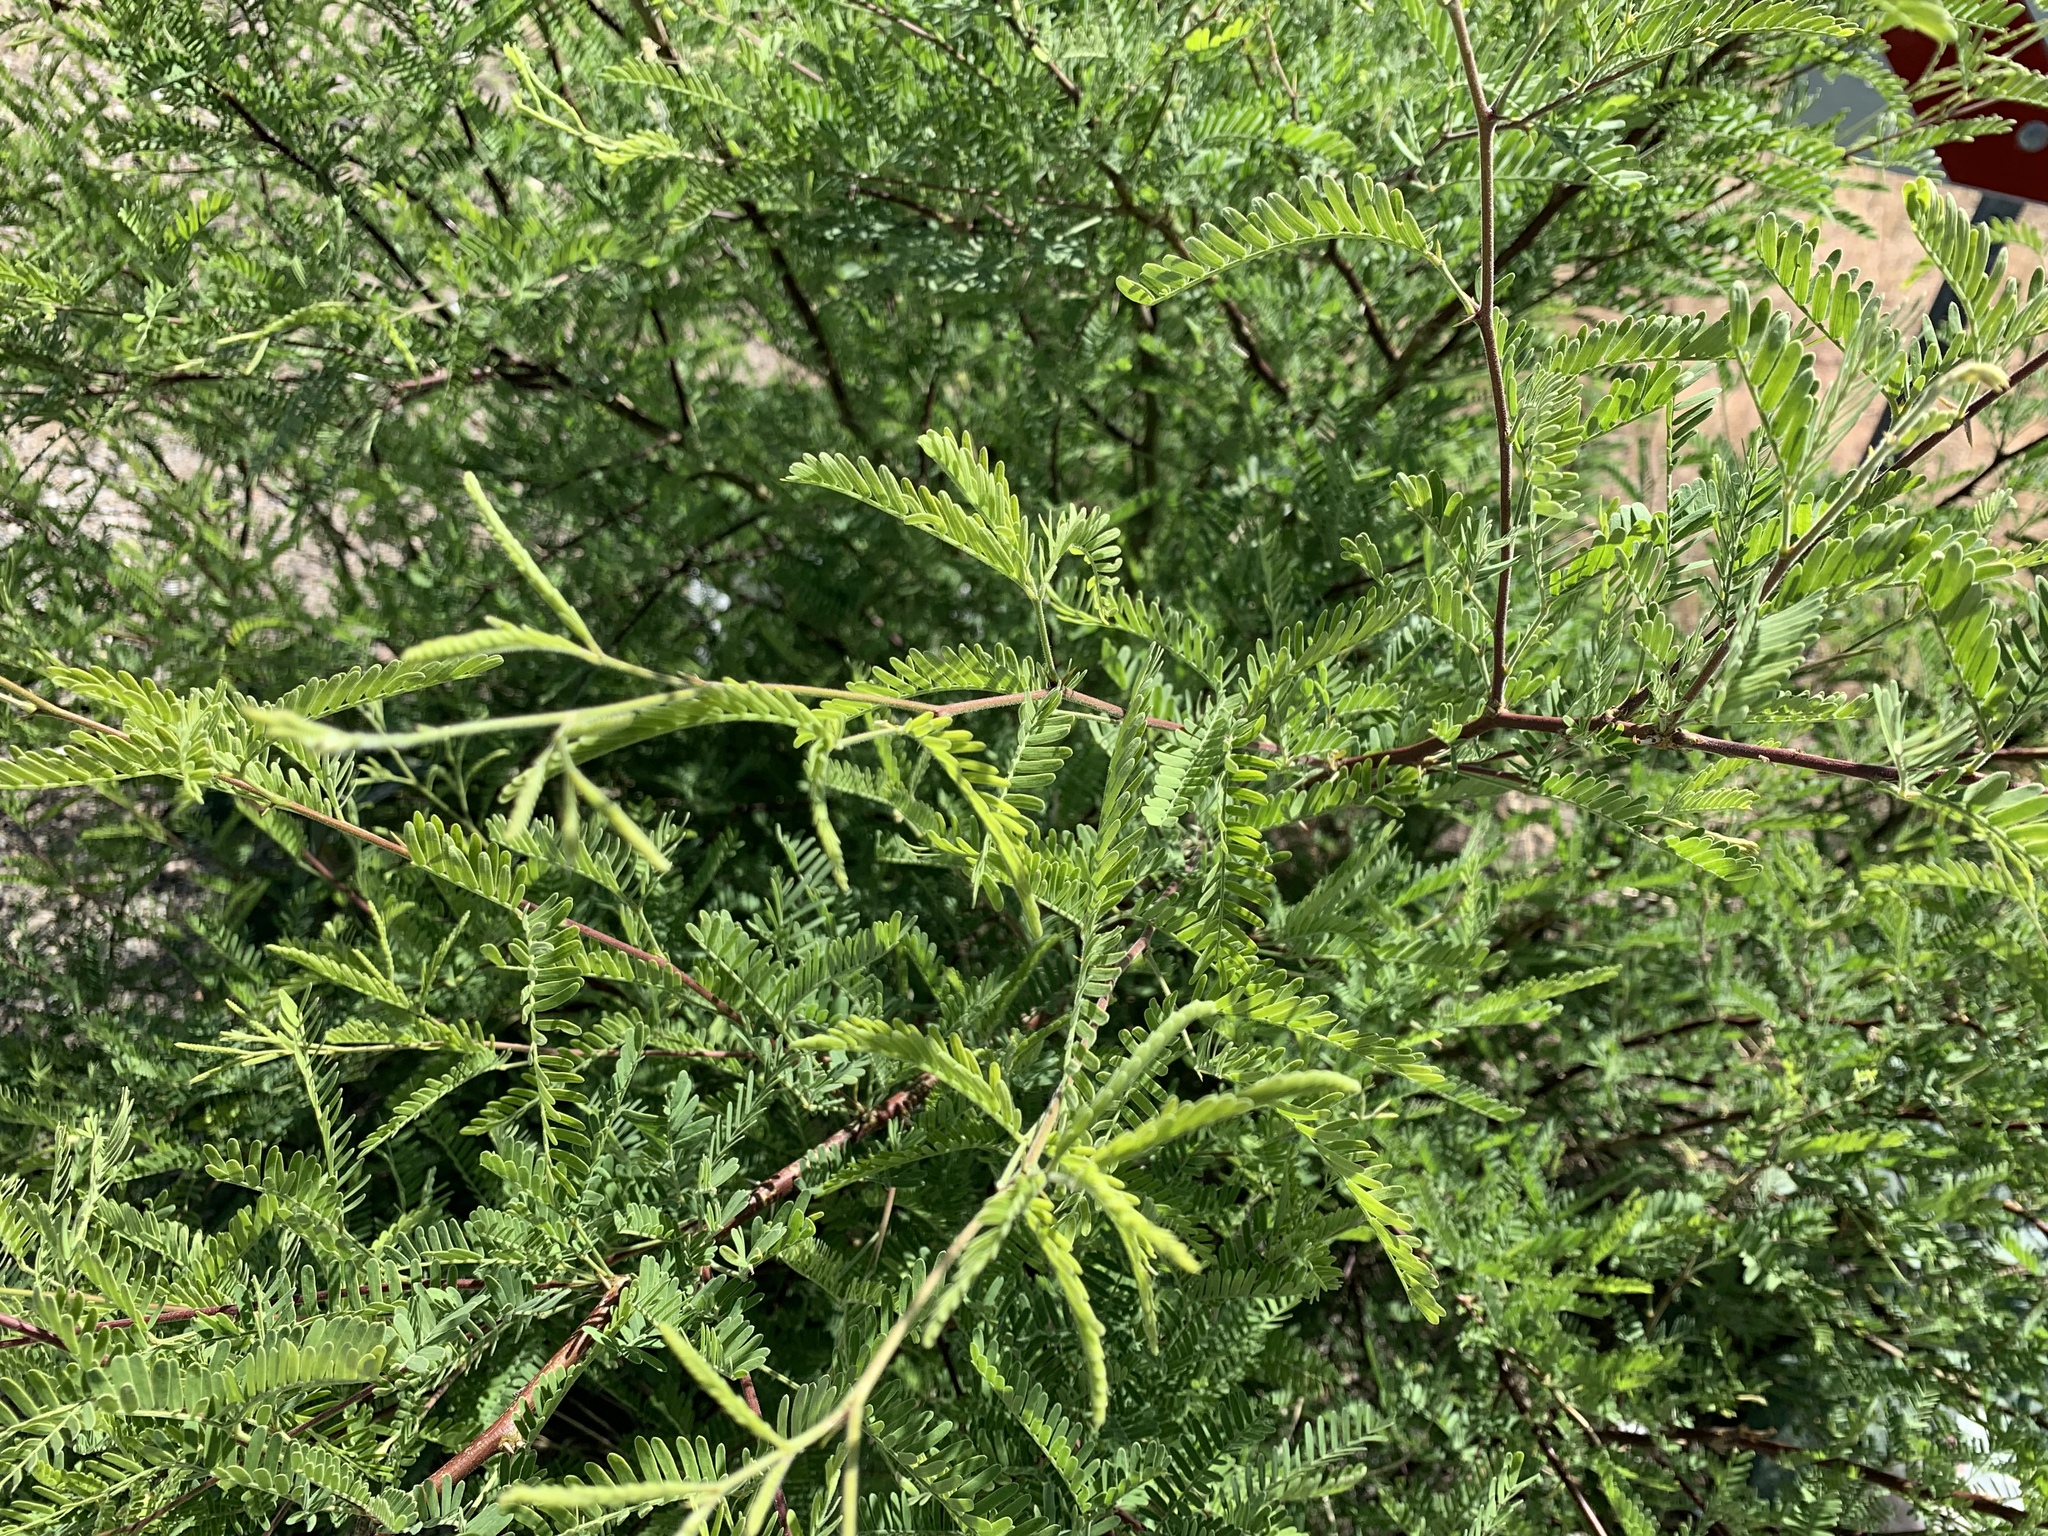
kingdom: Plantae
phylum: Tracheophyta
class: Magnoliopsida
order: Fabales
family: Fabaceae
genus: Prosopis
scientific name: Prosopis velutina
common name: Velvet mesquite
